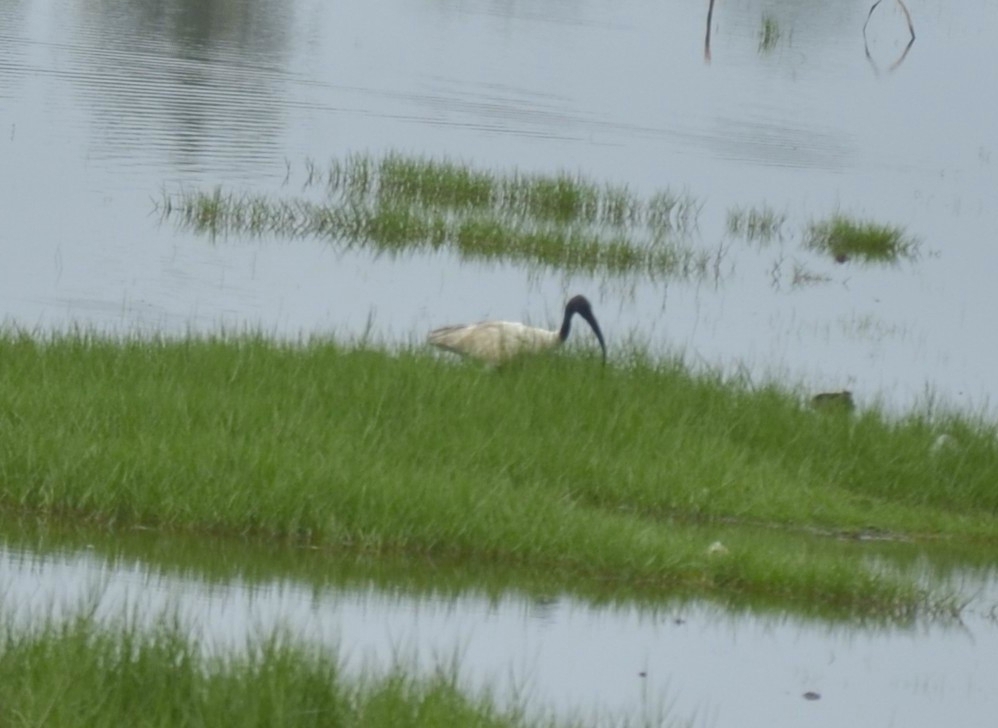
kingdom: Animalia
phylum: Chordata
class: Aves
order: Pelecaniformes
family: Threskiornithidae
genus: Threskiornis
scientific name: Threskiornis melanocephalus
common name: Black-headed ibis
